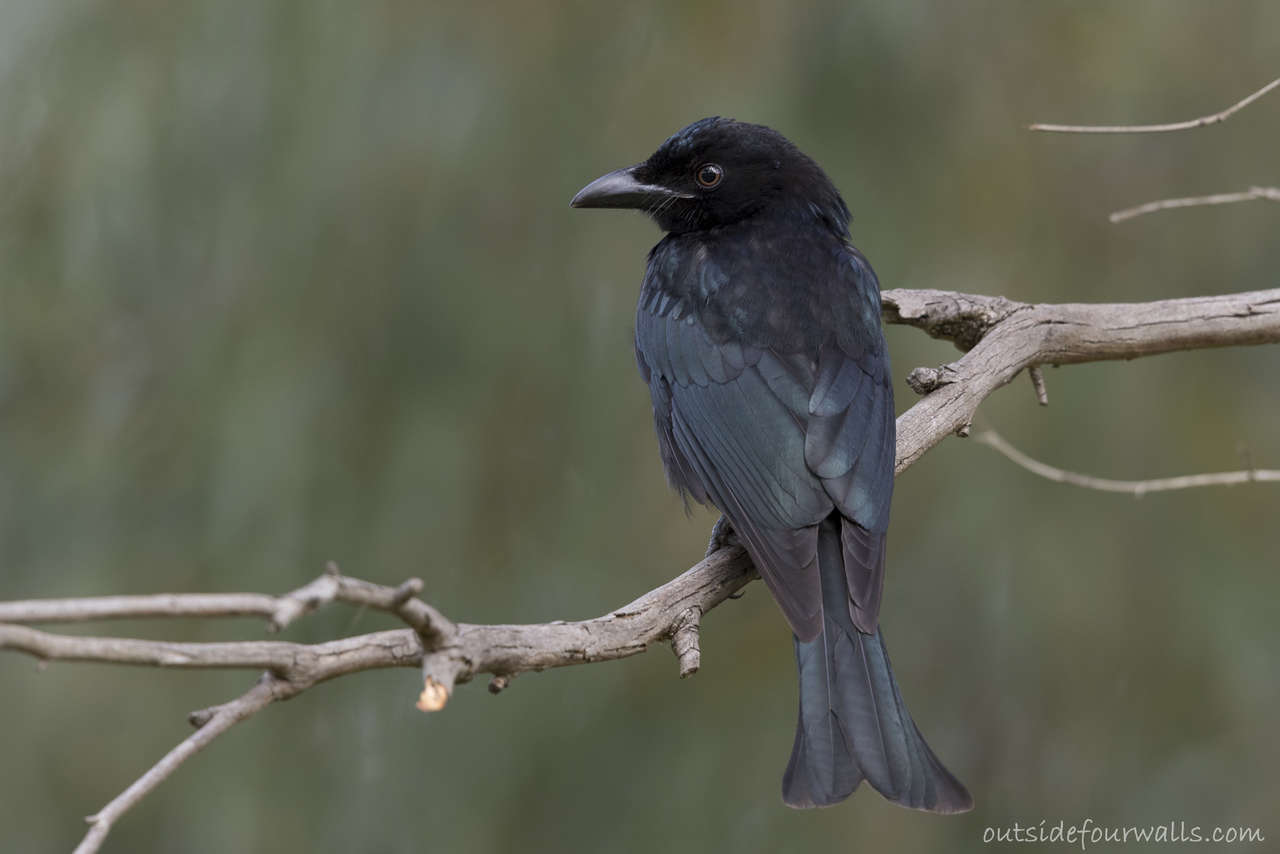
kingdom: Animalia
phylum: Chordata
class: Aves
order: Passeriformes
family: Dicruridae
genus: Dicrurus
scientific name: Dicrurus bracteatus
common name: Spangled drongo
